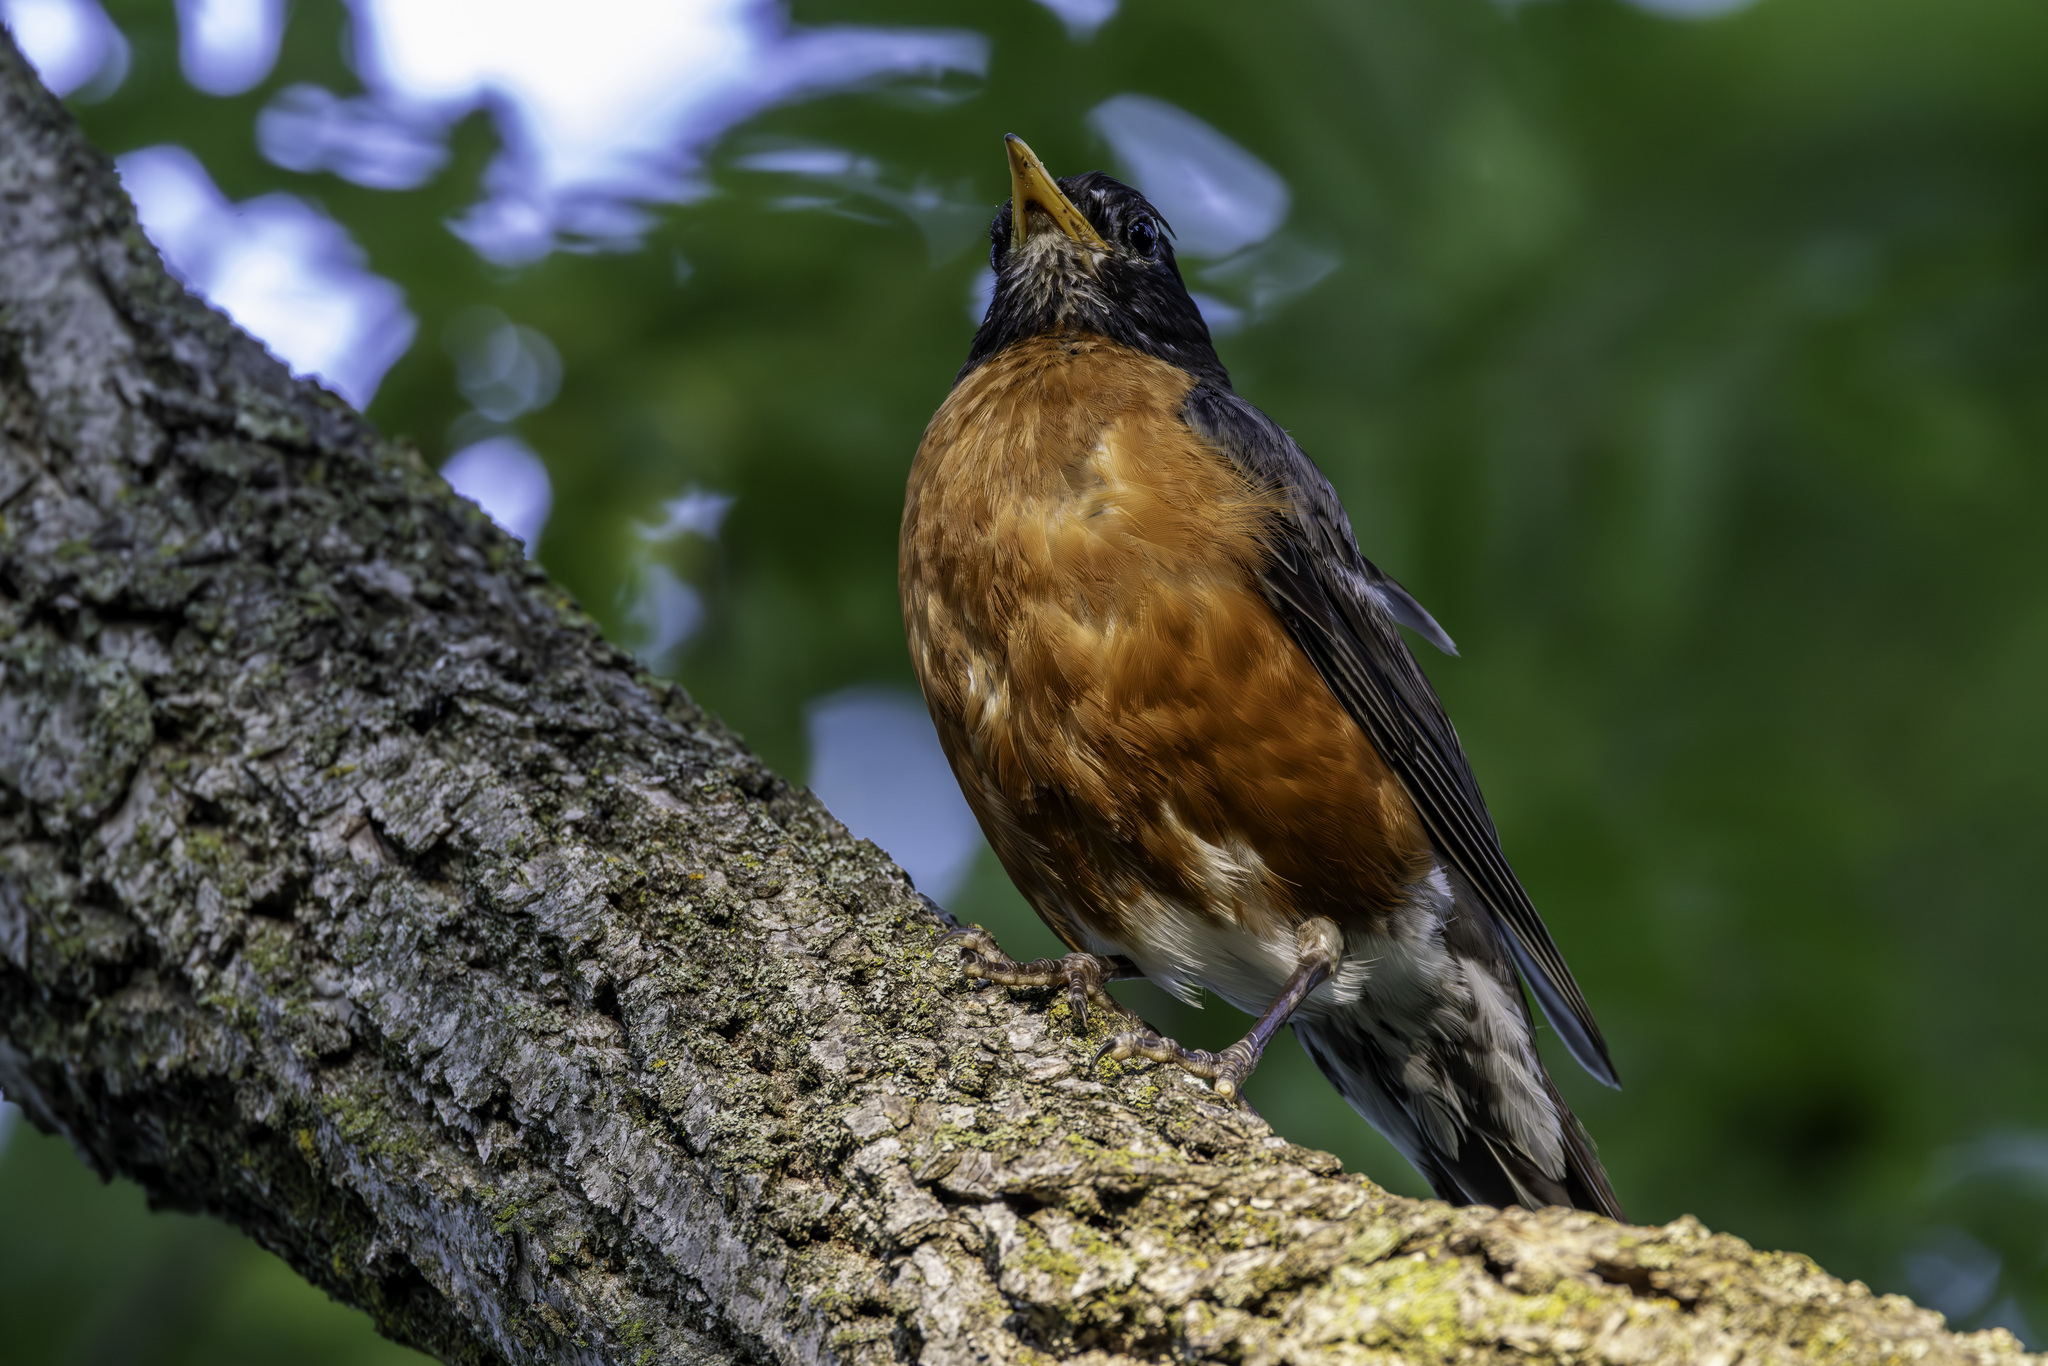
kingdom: Animalia
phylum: Chordata
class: Aves
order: Passeriformes
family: Turdidae
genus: Turdus
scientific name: Turdus migratorius
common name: American robin
